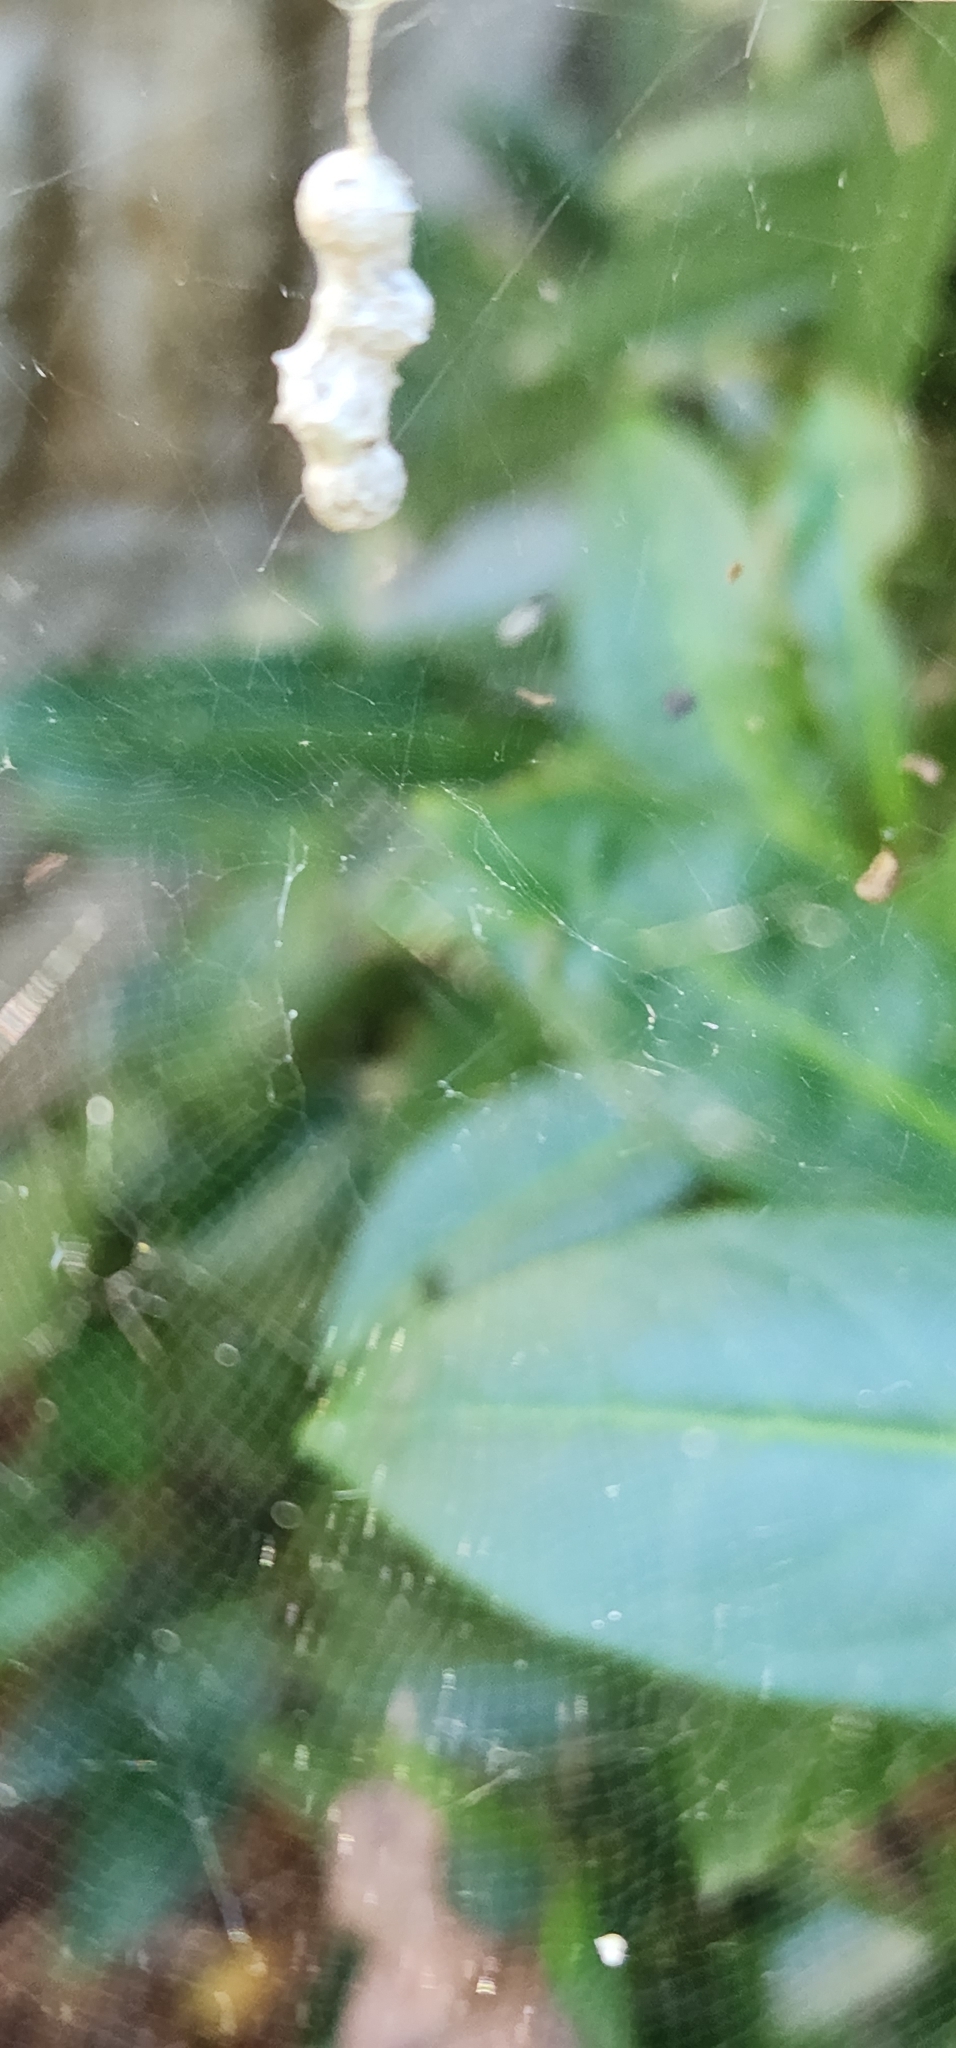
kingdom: Animalia
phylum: Arthropoda
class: Arachnida
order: Araneae
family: Araneidae
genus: Mecynogea
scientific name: Mecynogea lemniscata
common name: Orb weavers
